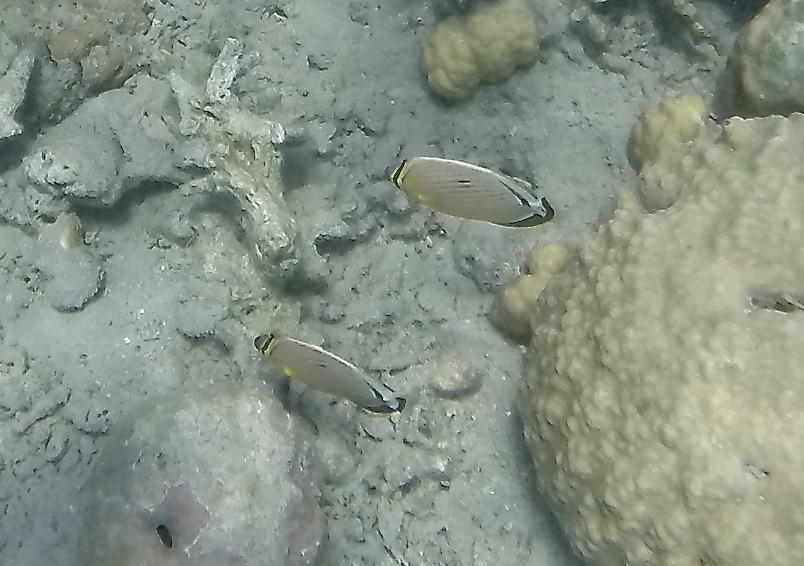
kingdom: Animalia
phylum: Chordata
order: Perciformes
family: Chaetodontidae
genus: Chaetodon
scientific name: Chaetodon lunulatus
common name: Redfin butterflyfish
